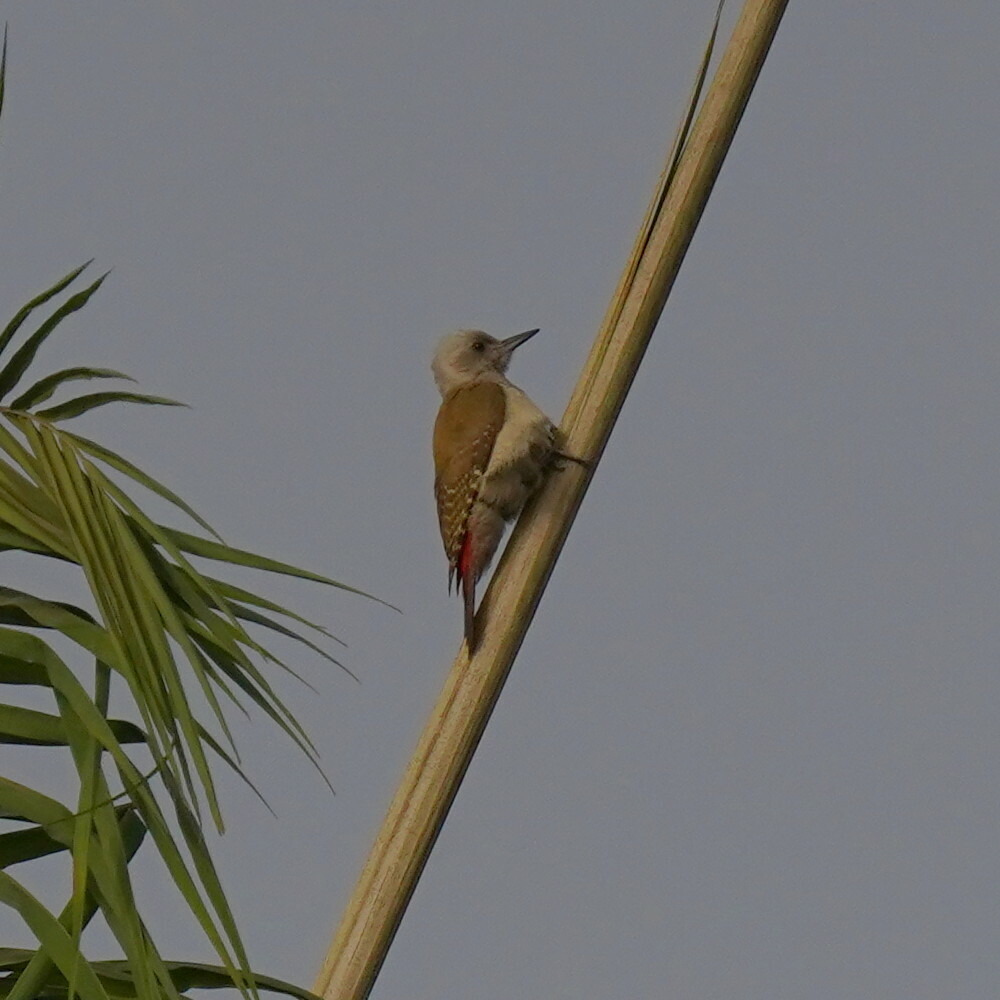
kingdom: Animalia
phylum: Chordata
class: Aves
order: Piciformes
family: Picidae
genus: Dendropicos
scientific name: Dendropicos goertae
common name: African grey woodpecker
